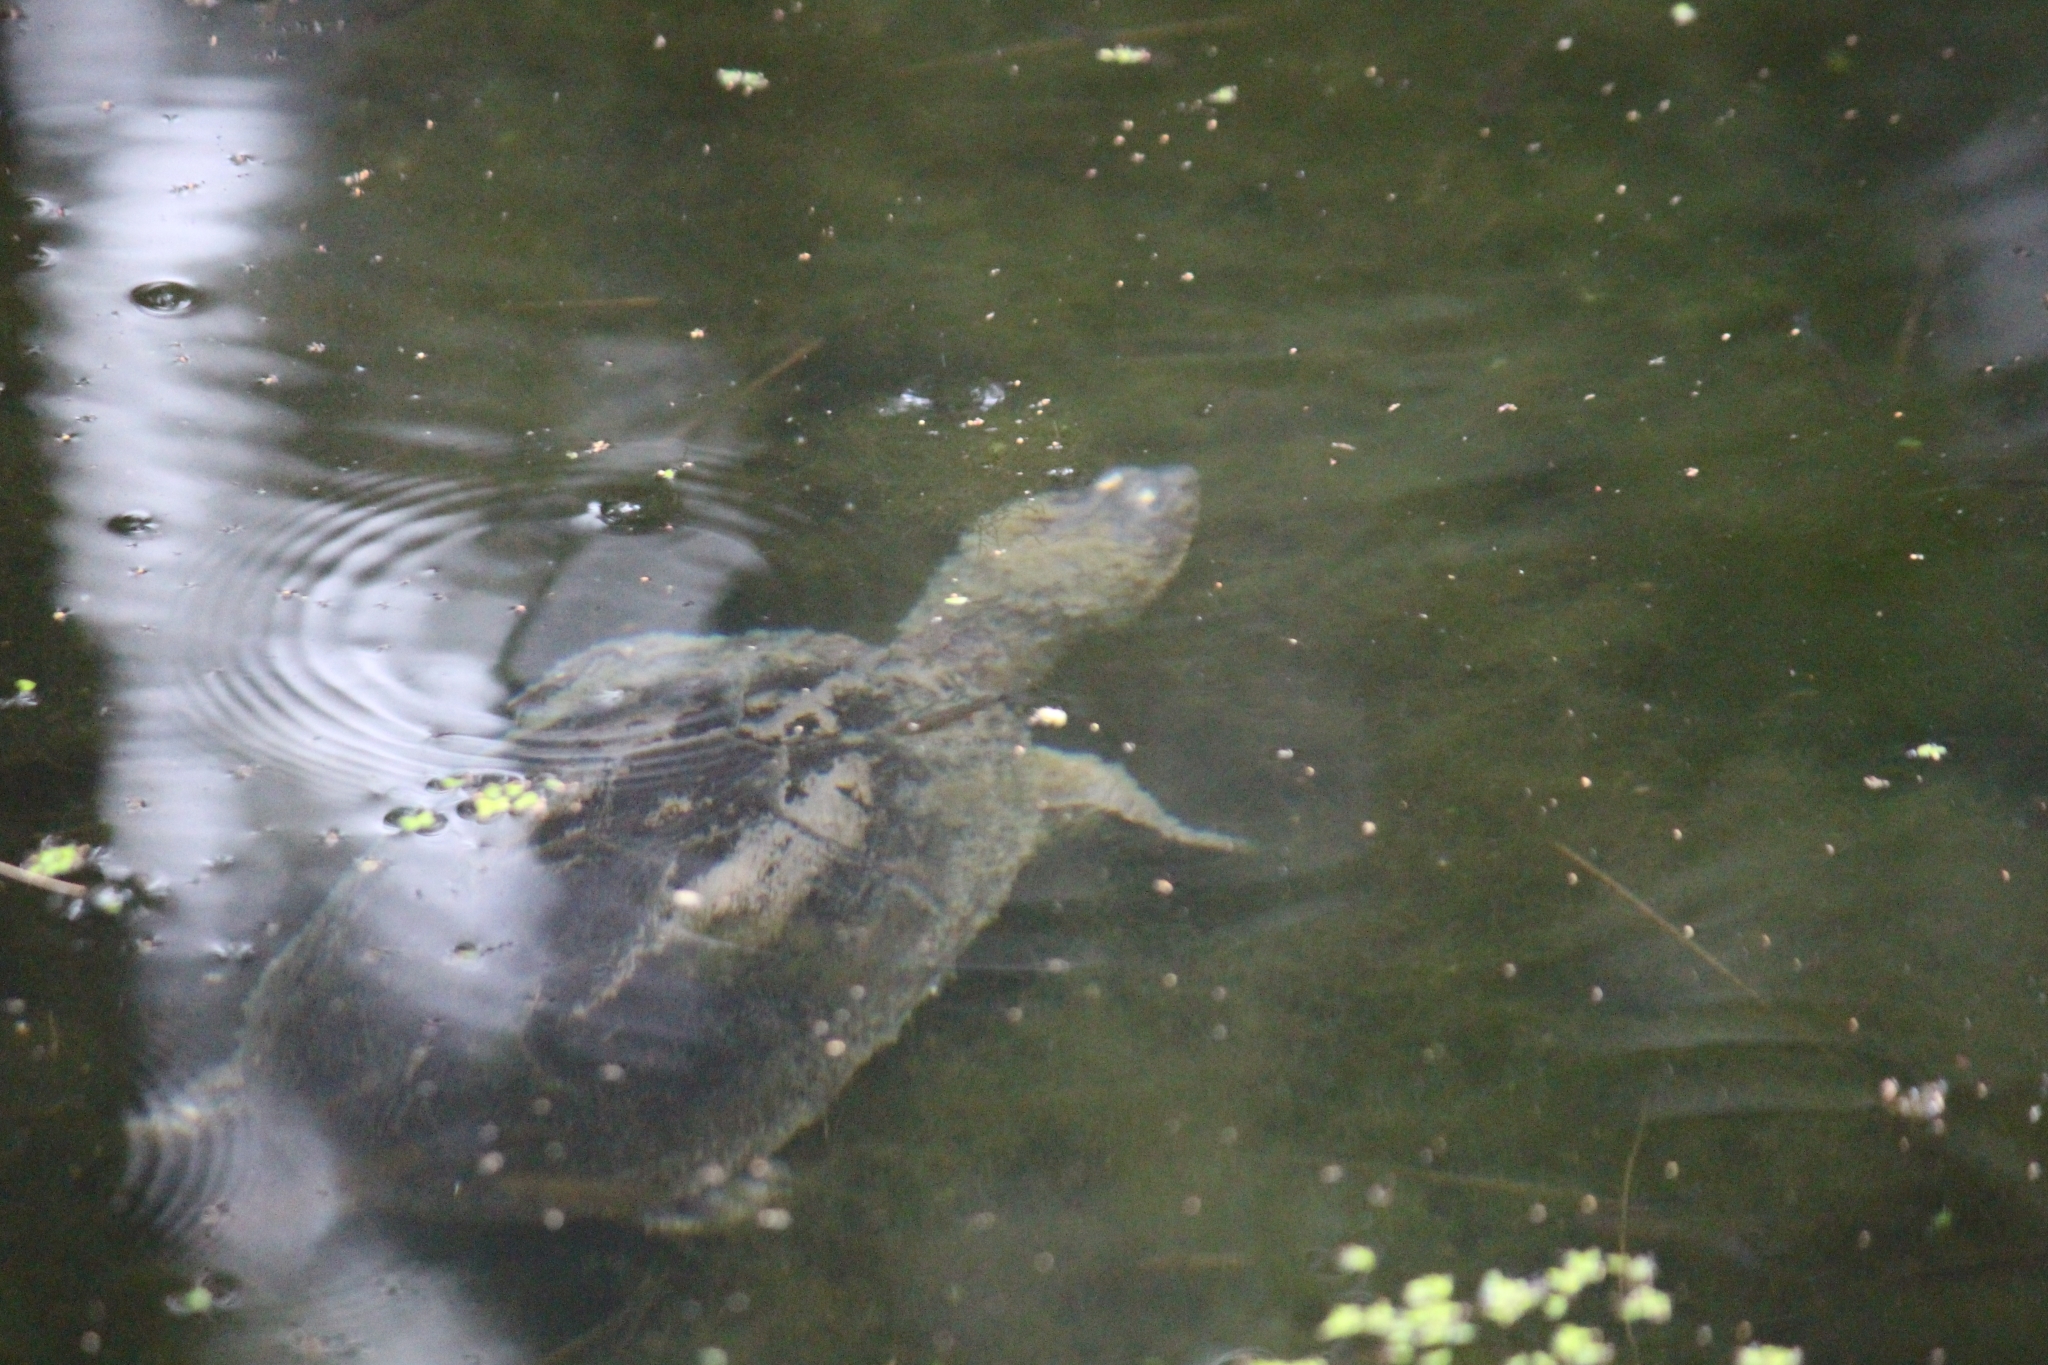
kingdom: Animalia
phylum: Chordata
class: Testudines
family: Kinosternidae
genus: Kinosternon
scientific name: Kinosternon integrum
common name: Mexican mud turtle
